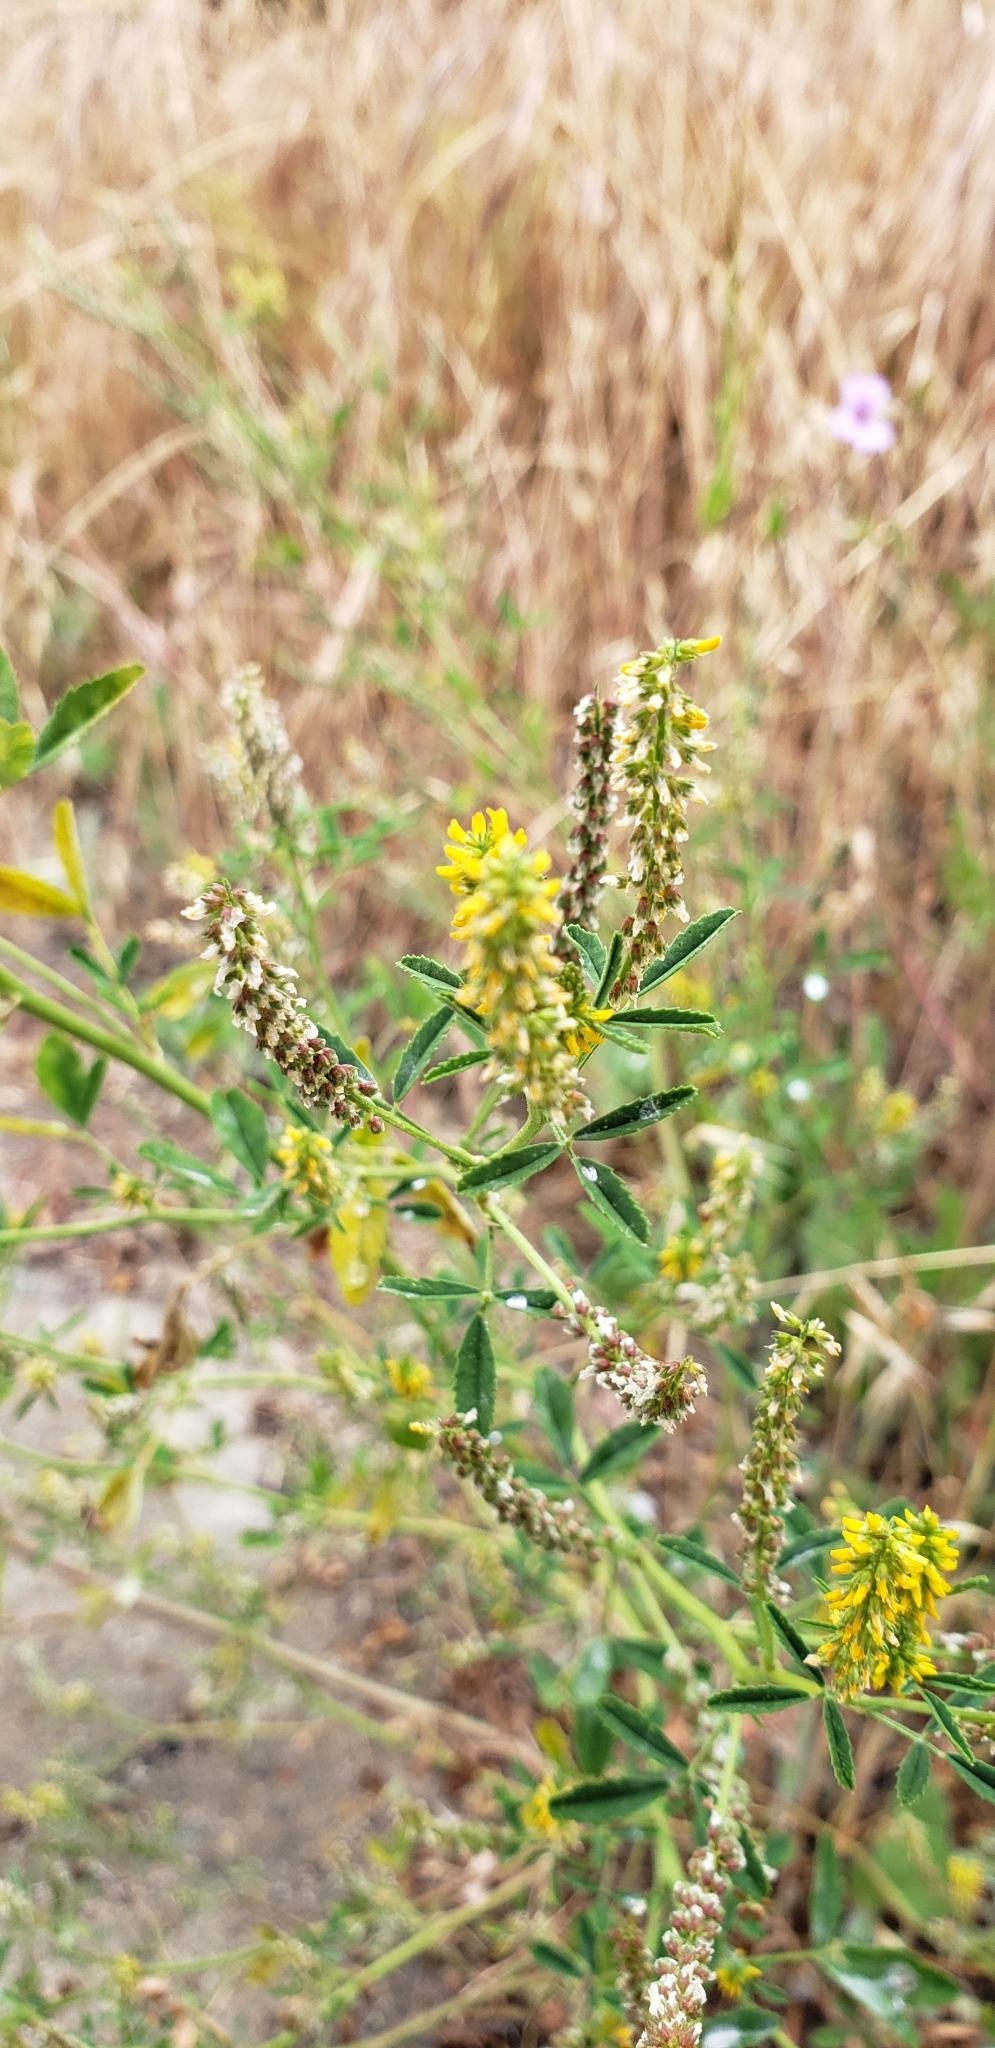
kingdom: Plantae
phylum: Tracheophyta
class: Magnoliopsida
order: Fabales
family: Fabaceae
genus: Melilotus
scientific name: Melilotus indicus
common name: Small melilot
